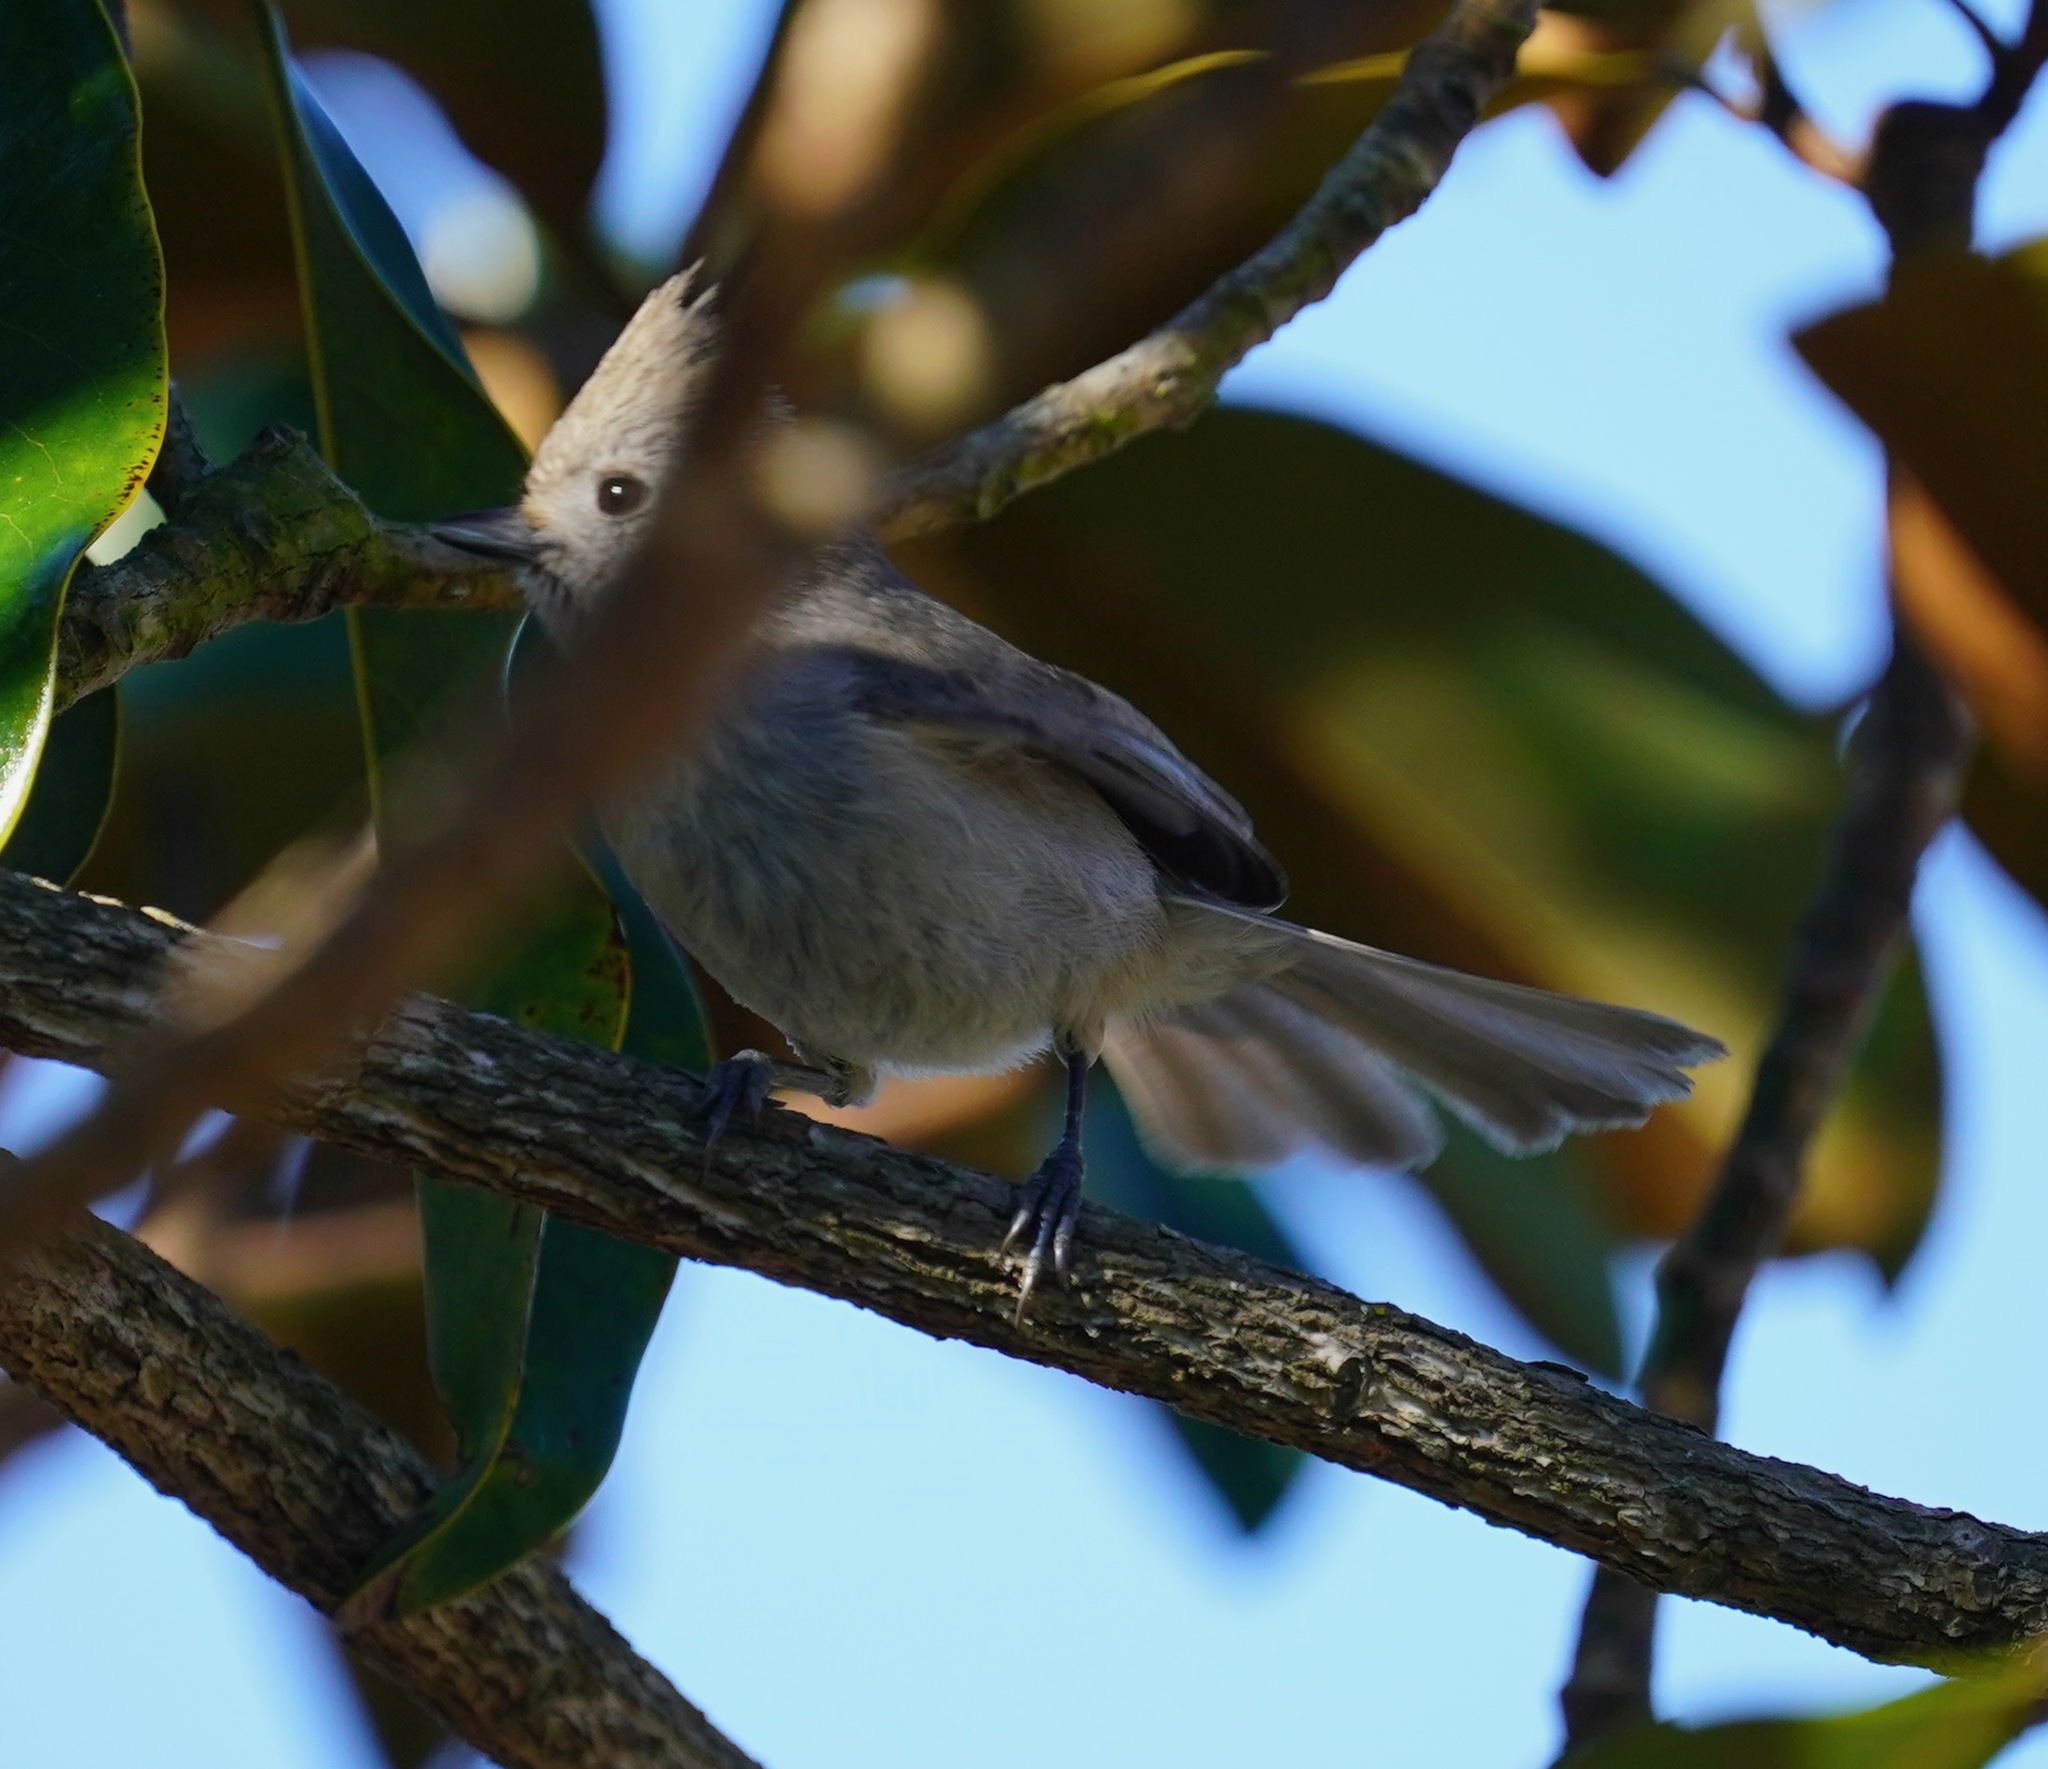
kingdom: Animalia
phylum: Chordata
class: Aves
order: Passeriformes
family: Paridae
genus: Baeolophus
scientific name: Baeolophus inornatus
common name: Oak titmouse
